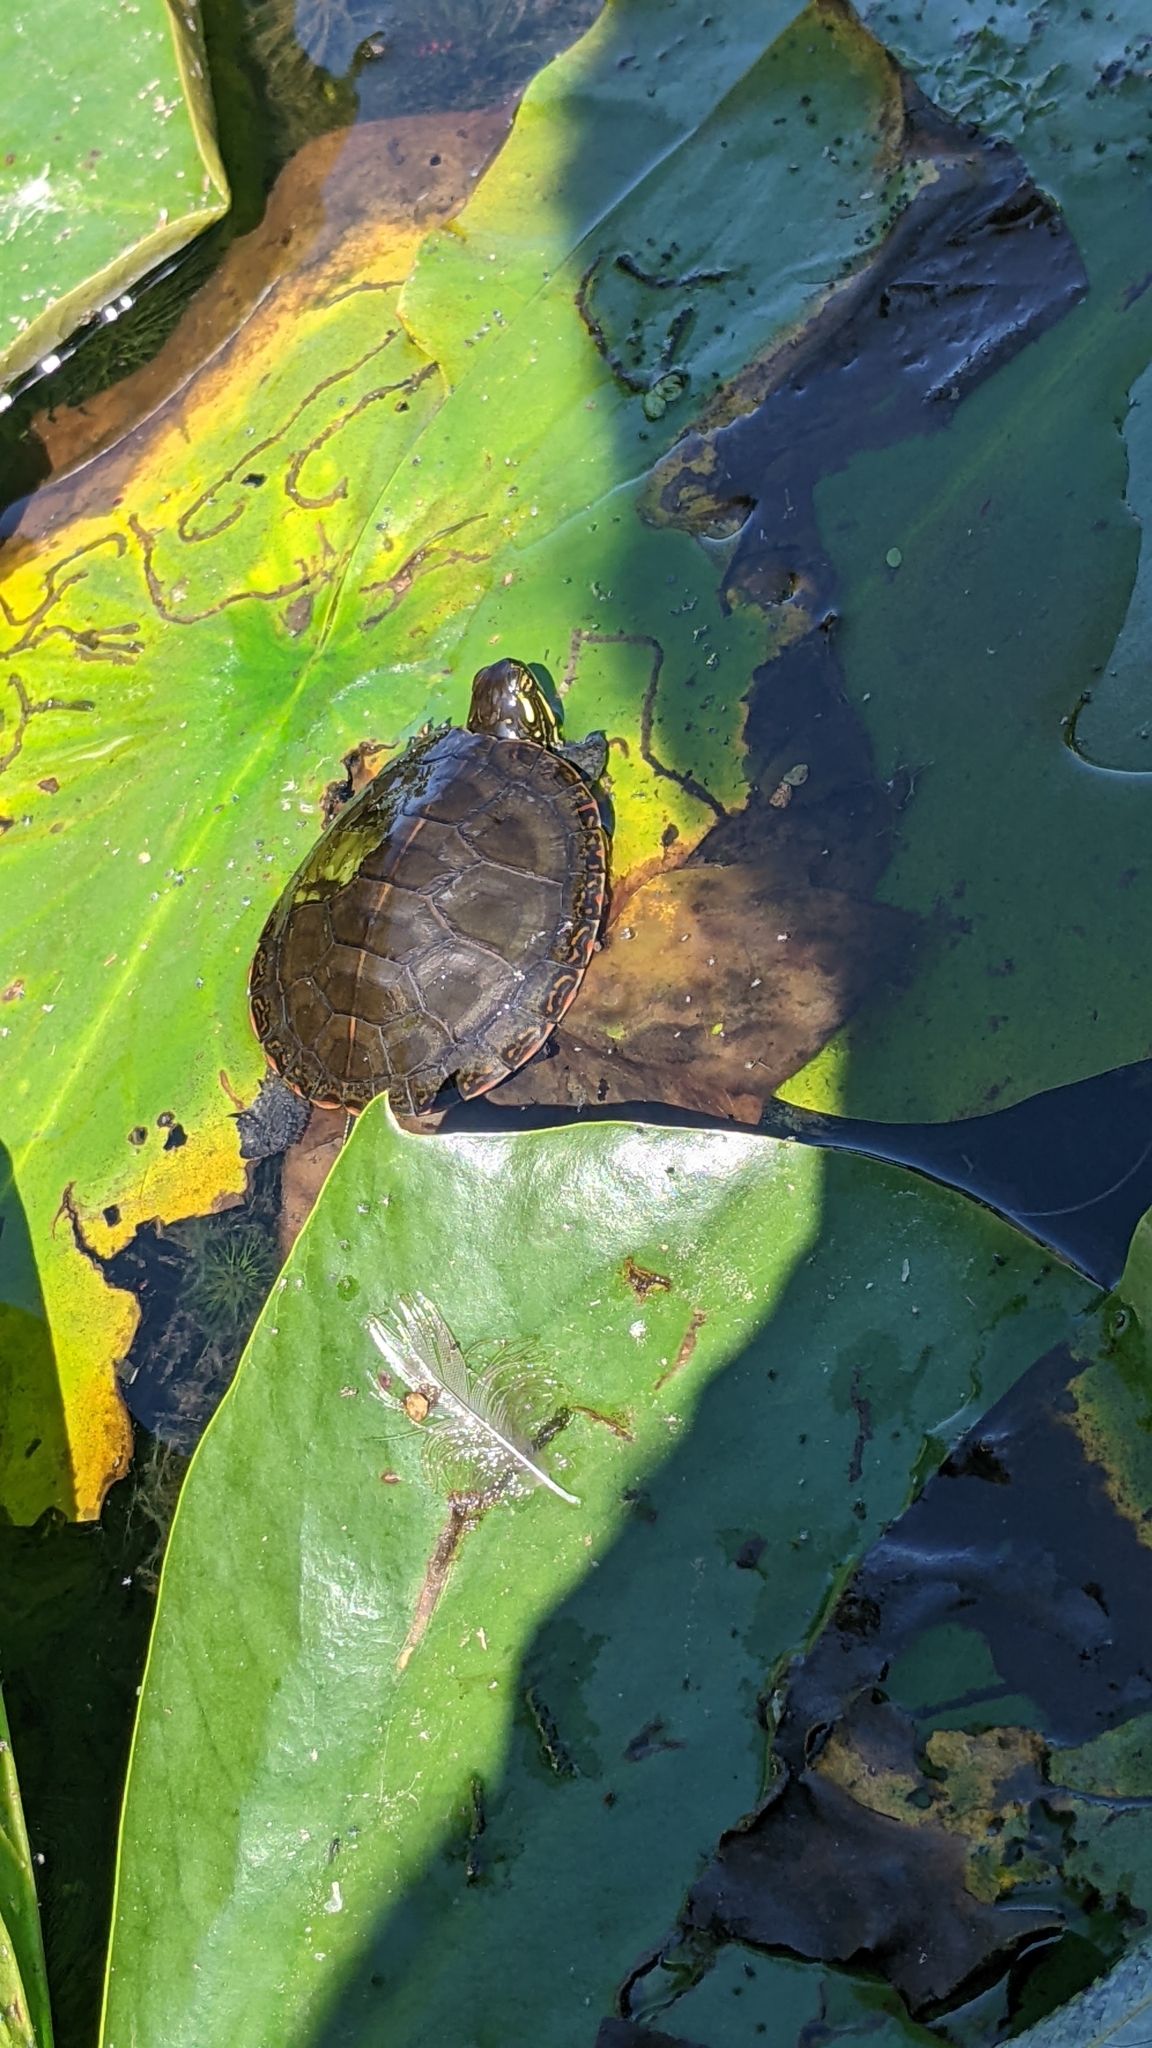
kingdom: Animalia
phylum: Chordata
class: Testudines
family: Emydidae
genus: Chrysemys
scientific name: Chrysemys picta
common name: Painted turtle
